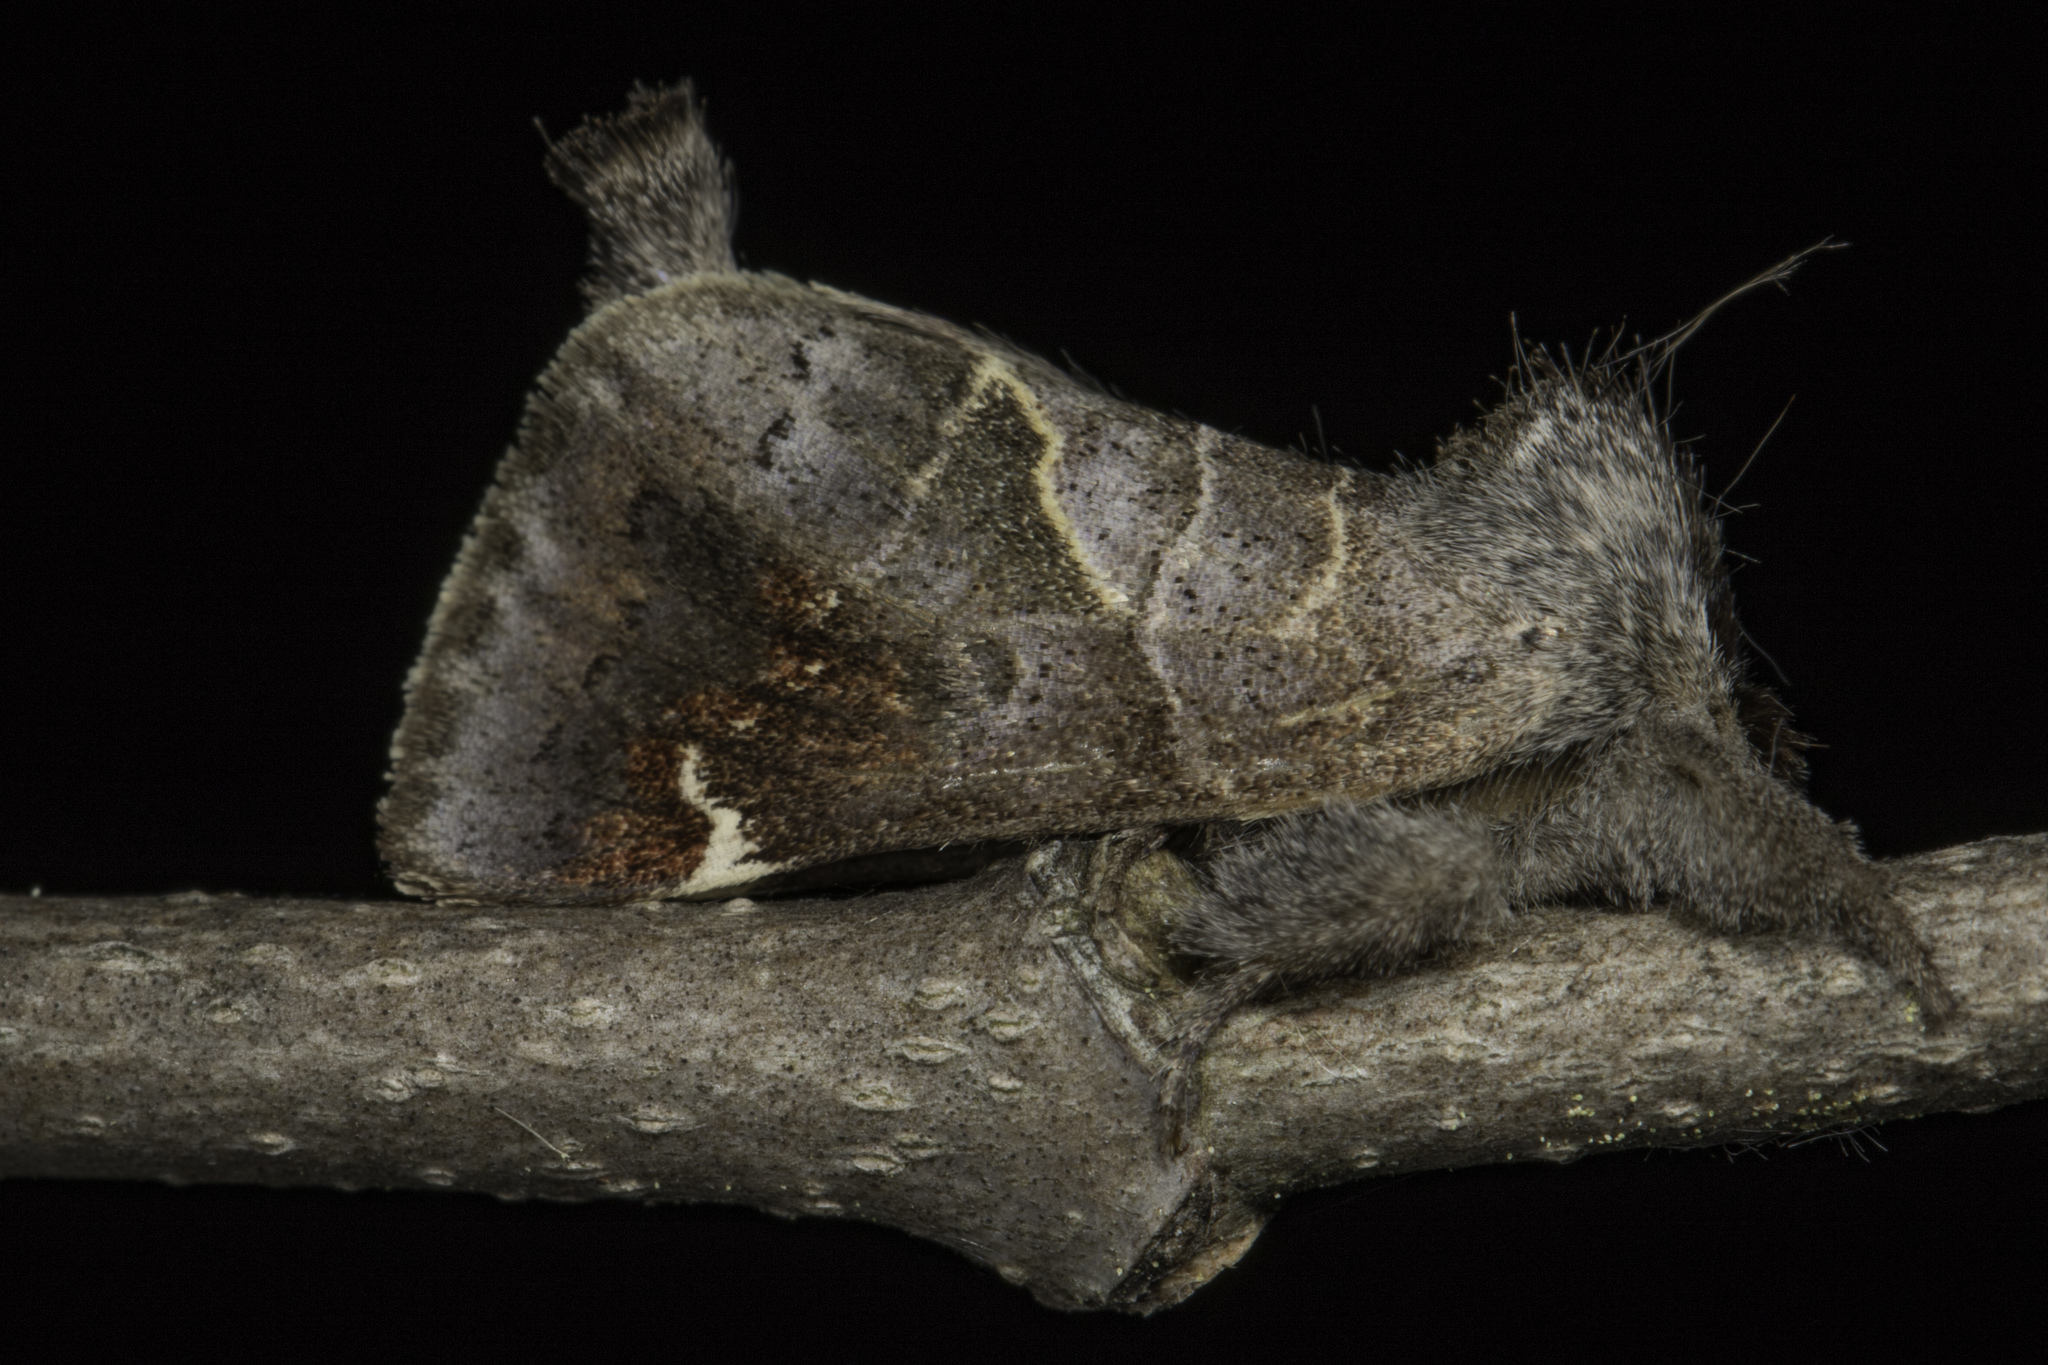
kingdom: Animalia
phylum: Arthropoda
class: Insecta
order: Lepidoptera
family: Notodontidae
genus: Clostera
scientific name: Clostera apicalis
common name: Apical prominent
